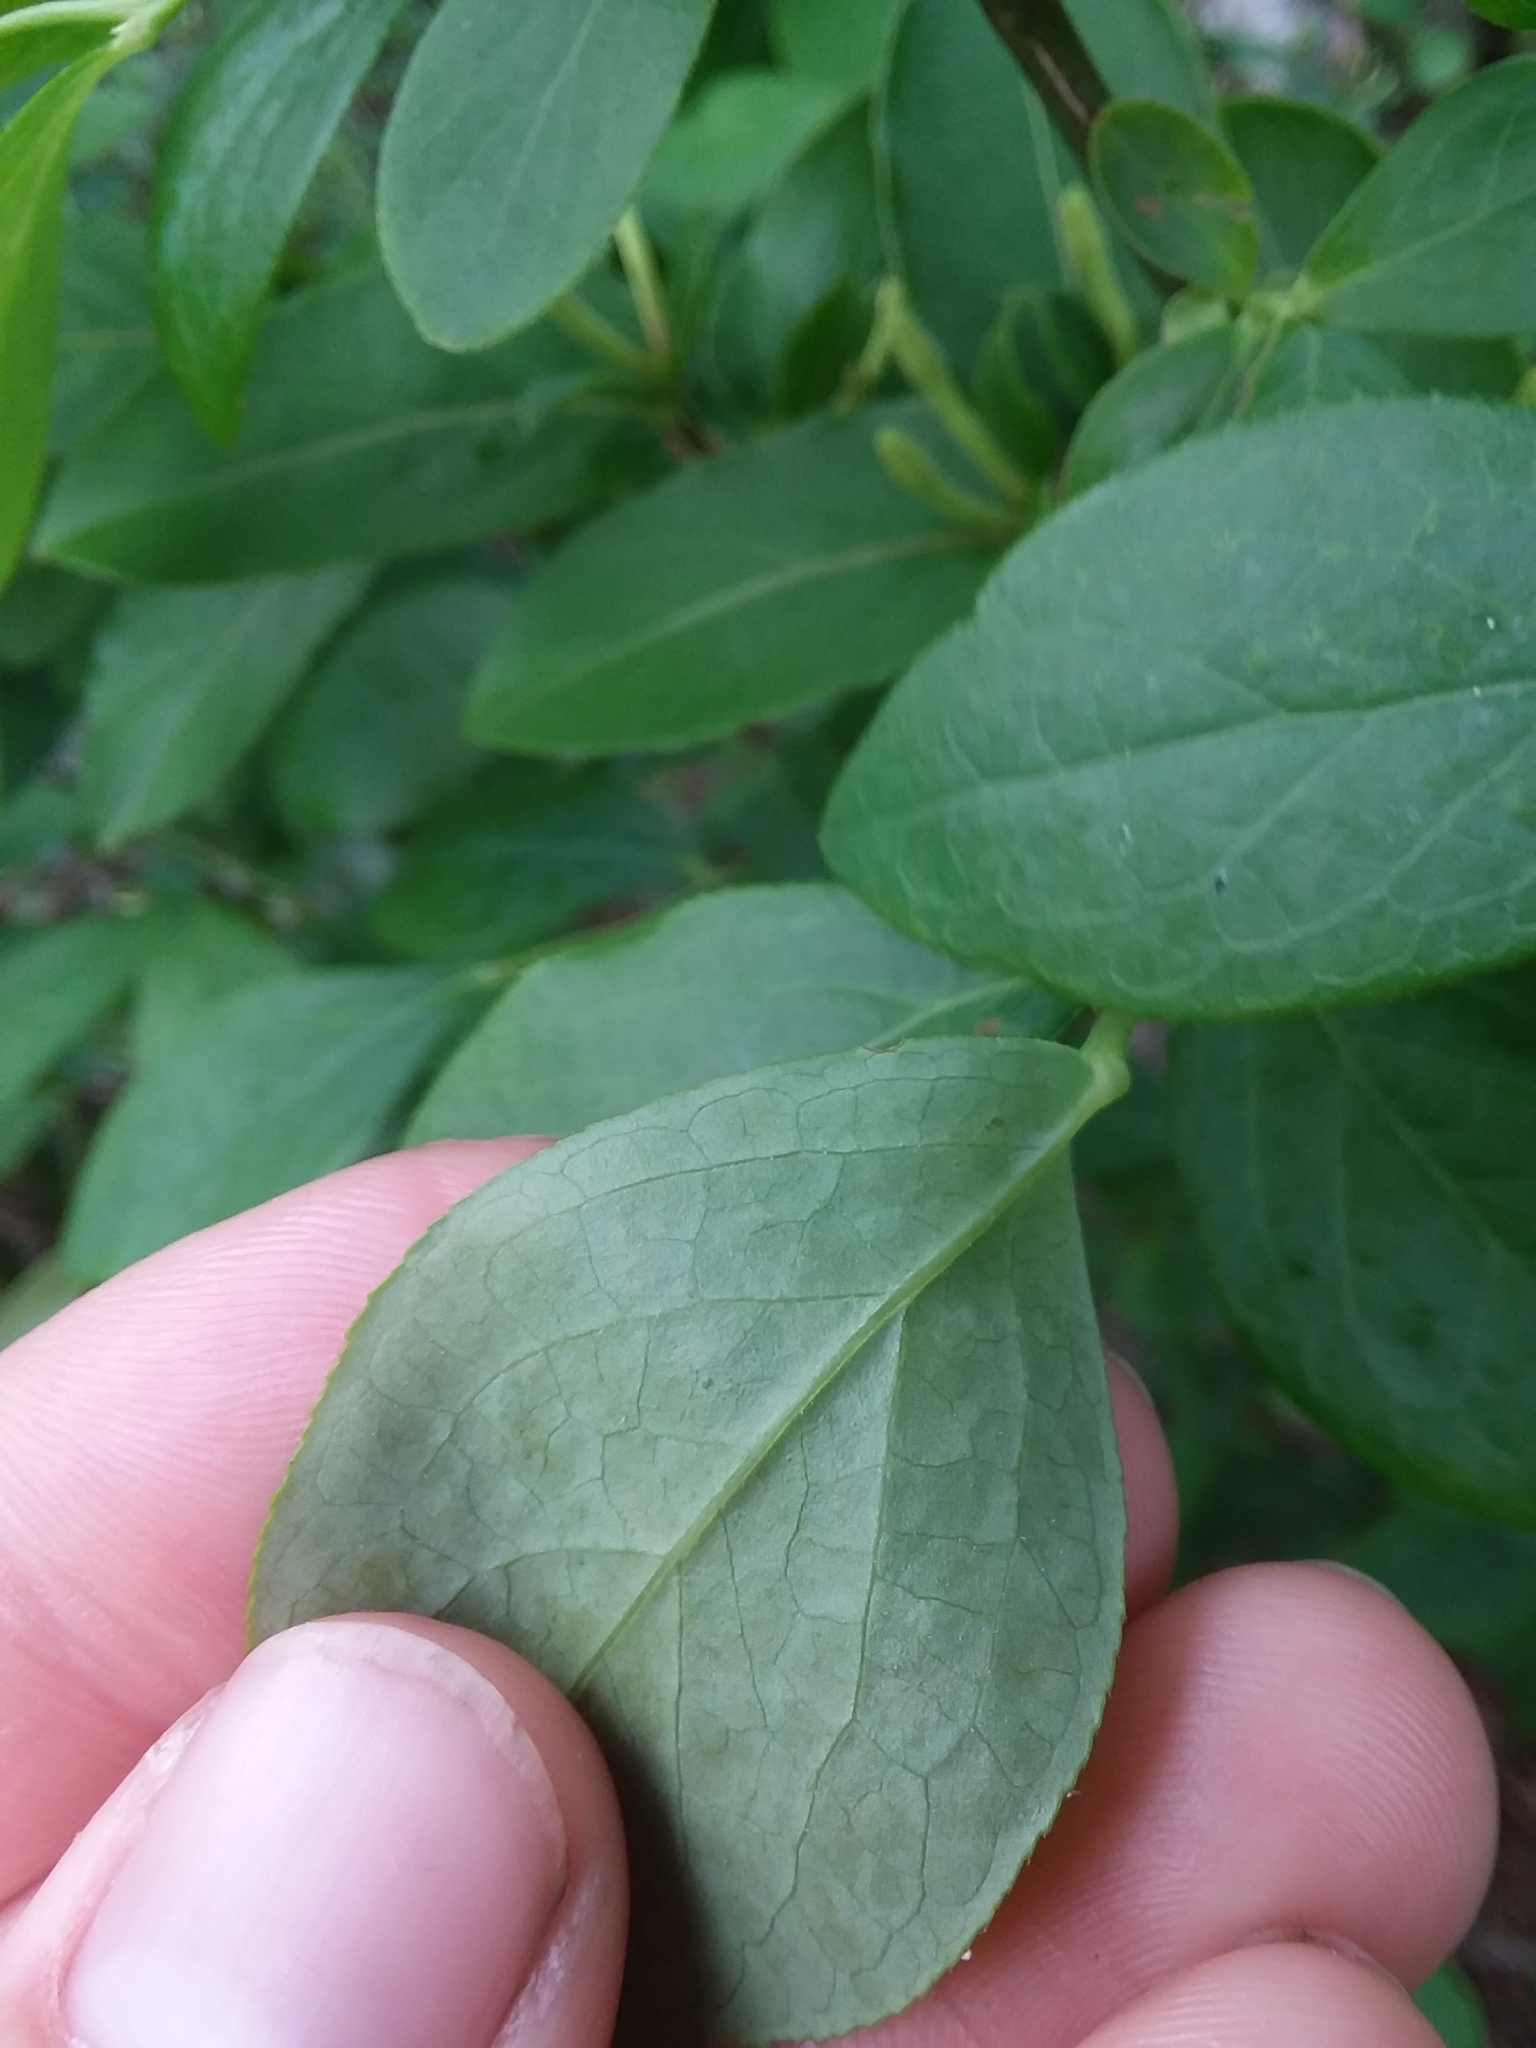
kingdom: Plantae
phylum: Tracheophyta
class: Magnoliopsida
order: Ericales
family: Ericaceae
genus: Vaccinium
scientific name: Vaccinium
